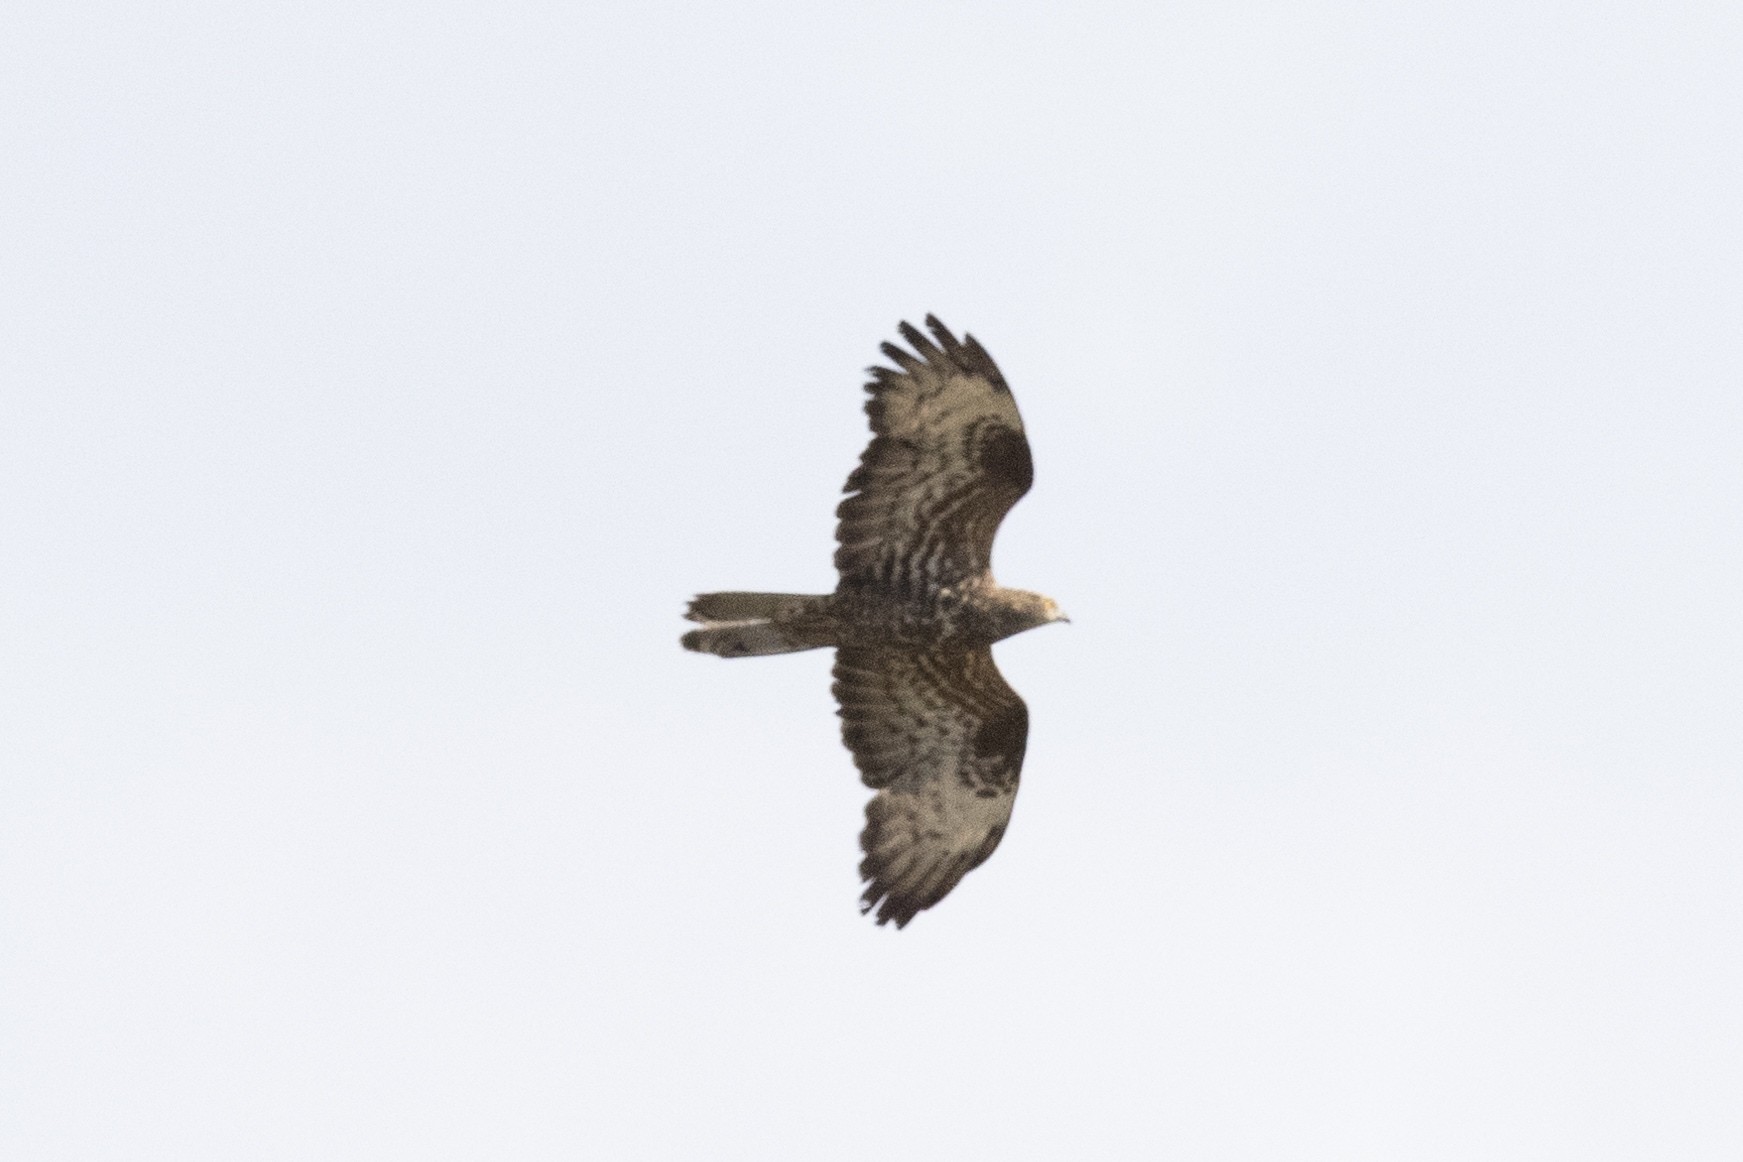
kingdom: Animalia
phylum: Chordata
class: Aves
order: Accipitriformes
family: Accipitridae
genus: Pernis
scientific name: Pernis apivorus
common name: European honey buzzard
